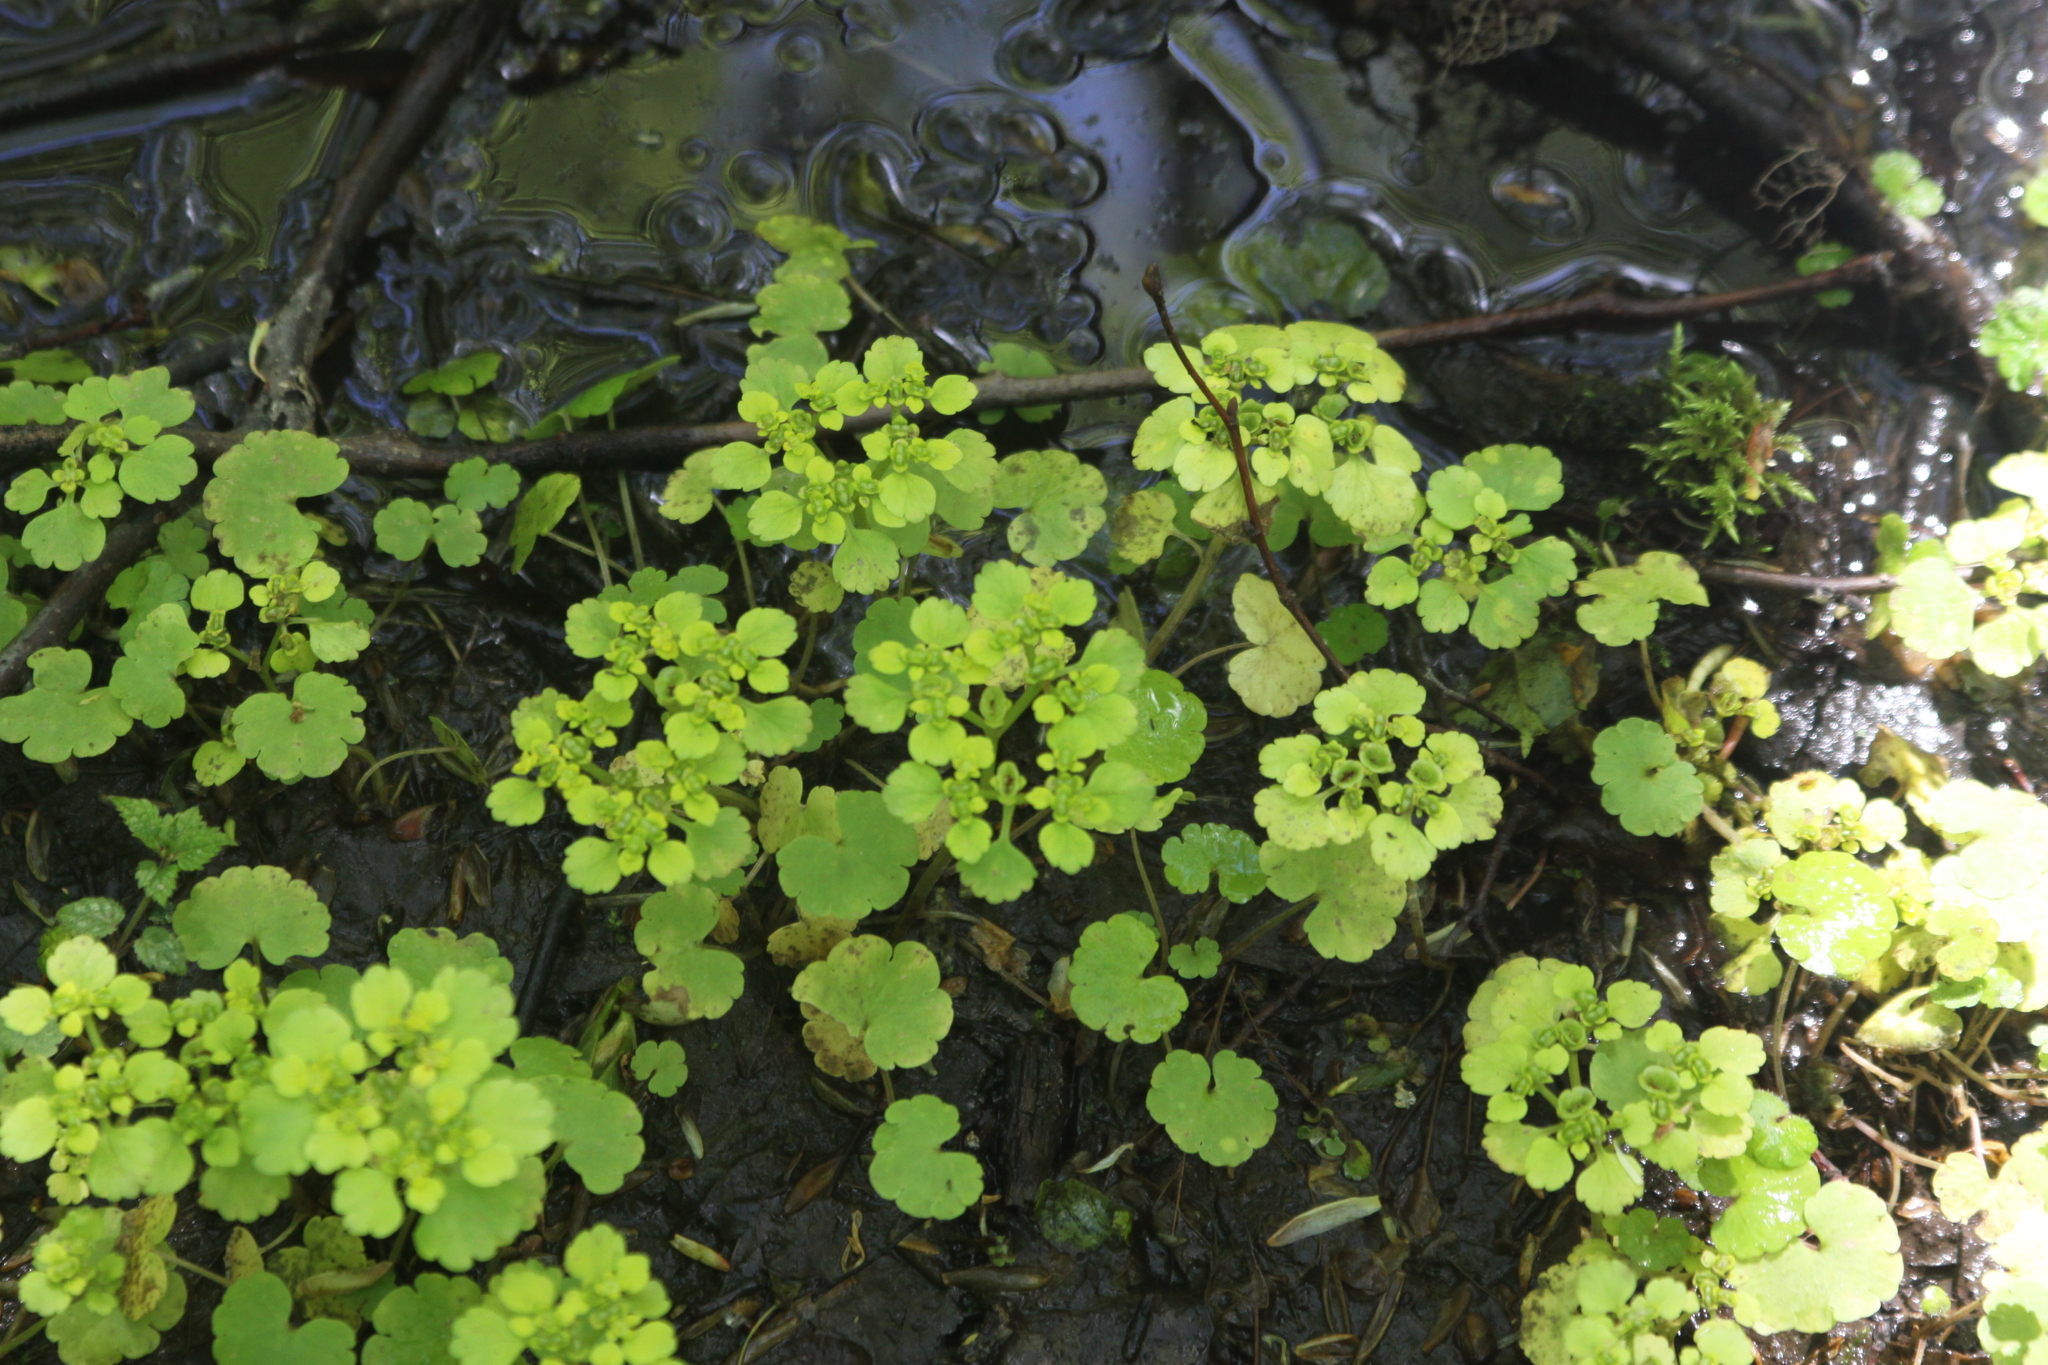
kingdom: Plantae
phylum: Tracheophyta
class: Magnoliopsida
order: Saxifragales
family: Saxifragaceae
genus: Chrysosplenium
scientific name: Chrysosplenium alternifolium
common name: Alternate-leaved golden-saxifrage
